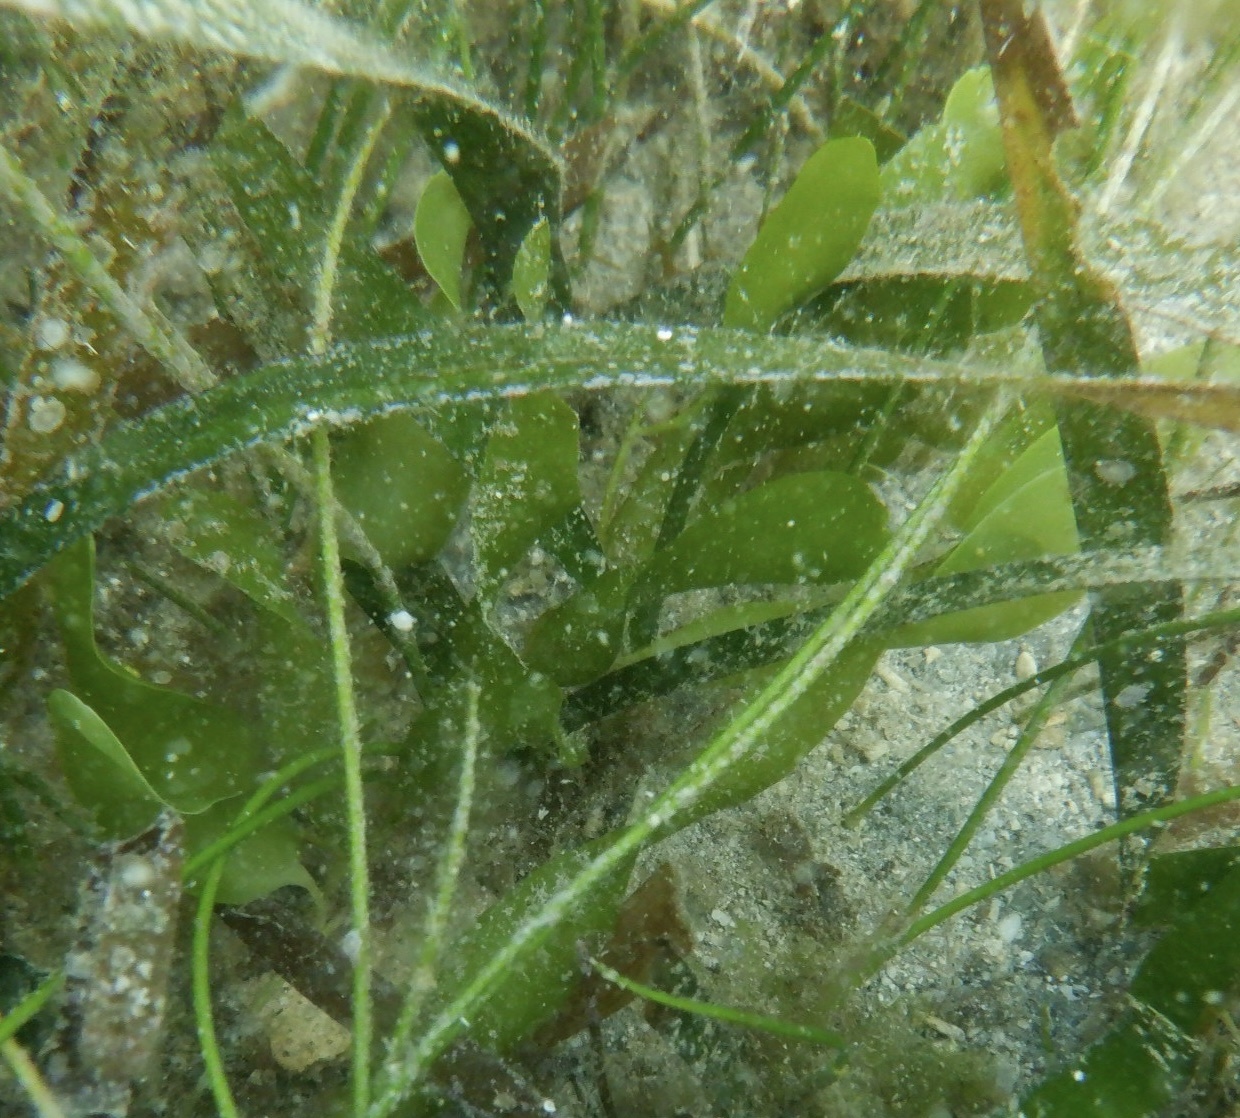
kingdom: Plantae
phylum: Chlorophyta
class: Ulvophyceae
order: Bryopsidales
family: Caulerpaceae
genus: Caulerpa
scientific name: Caulerpa prolifera
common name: Oval-blade algae
